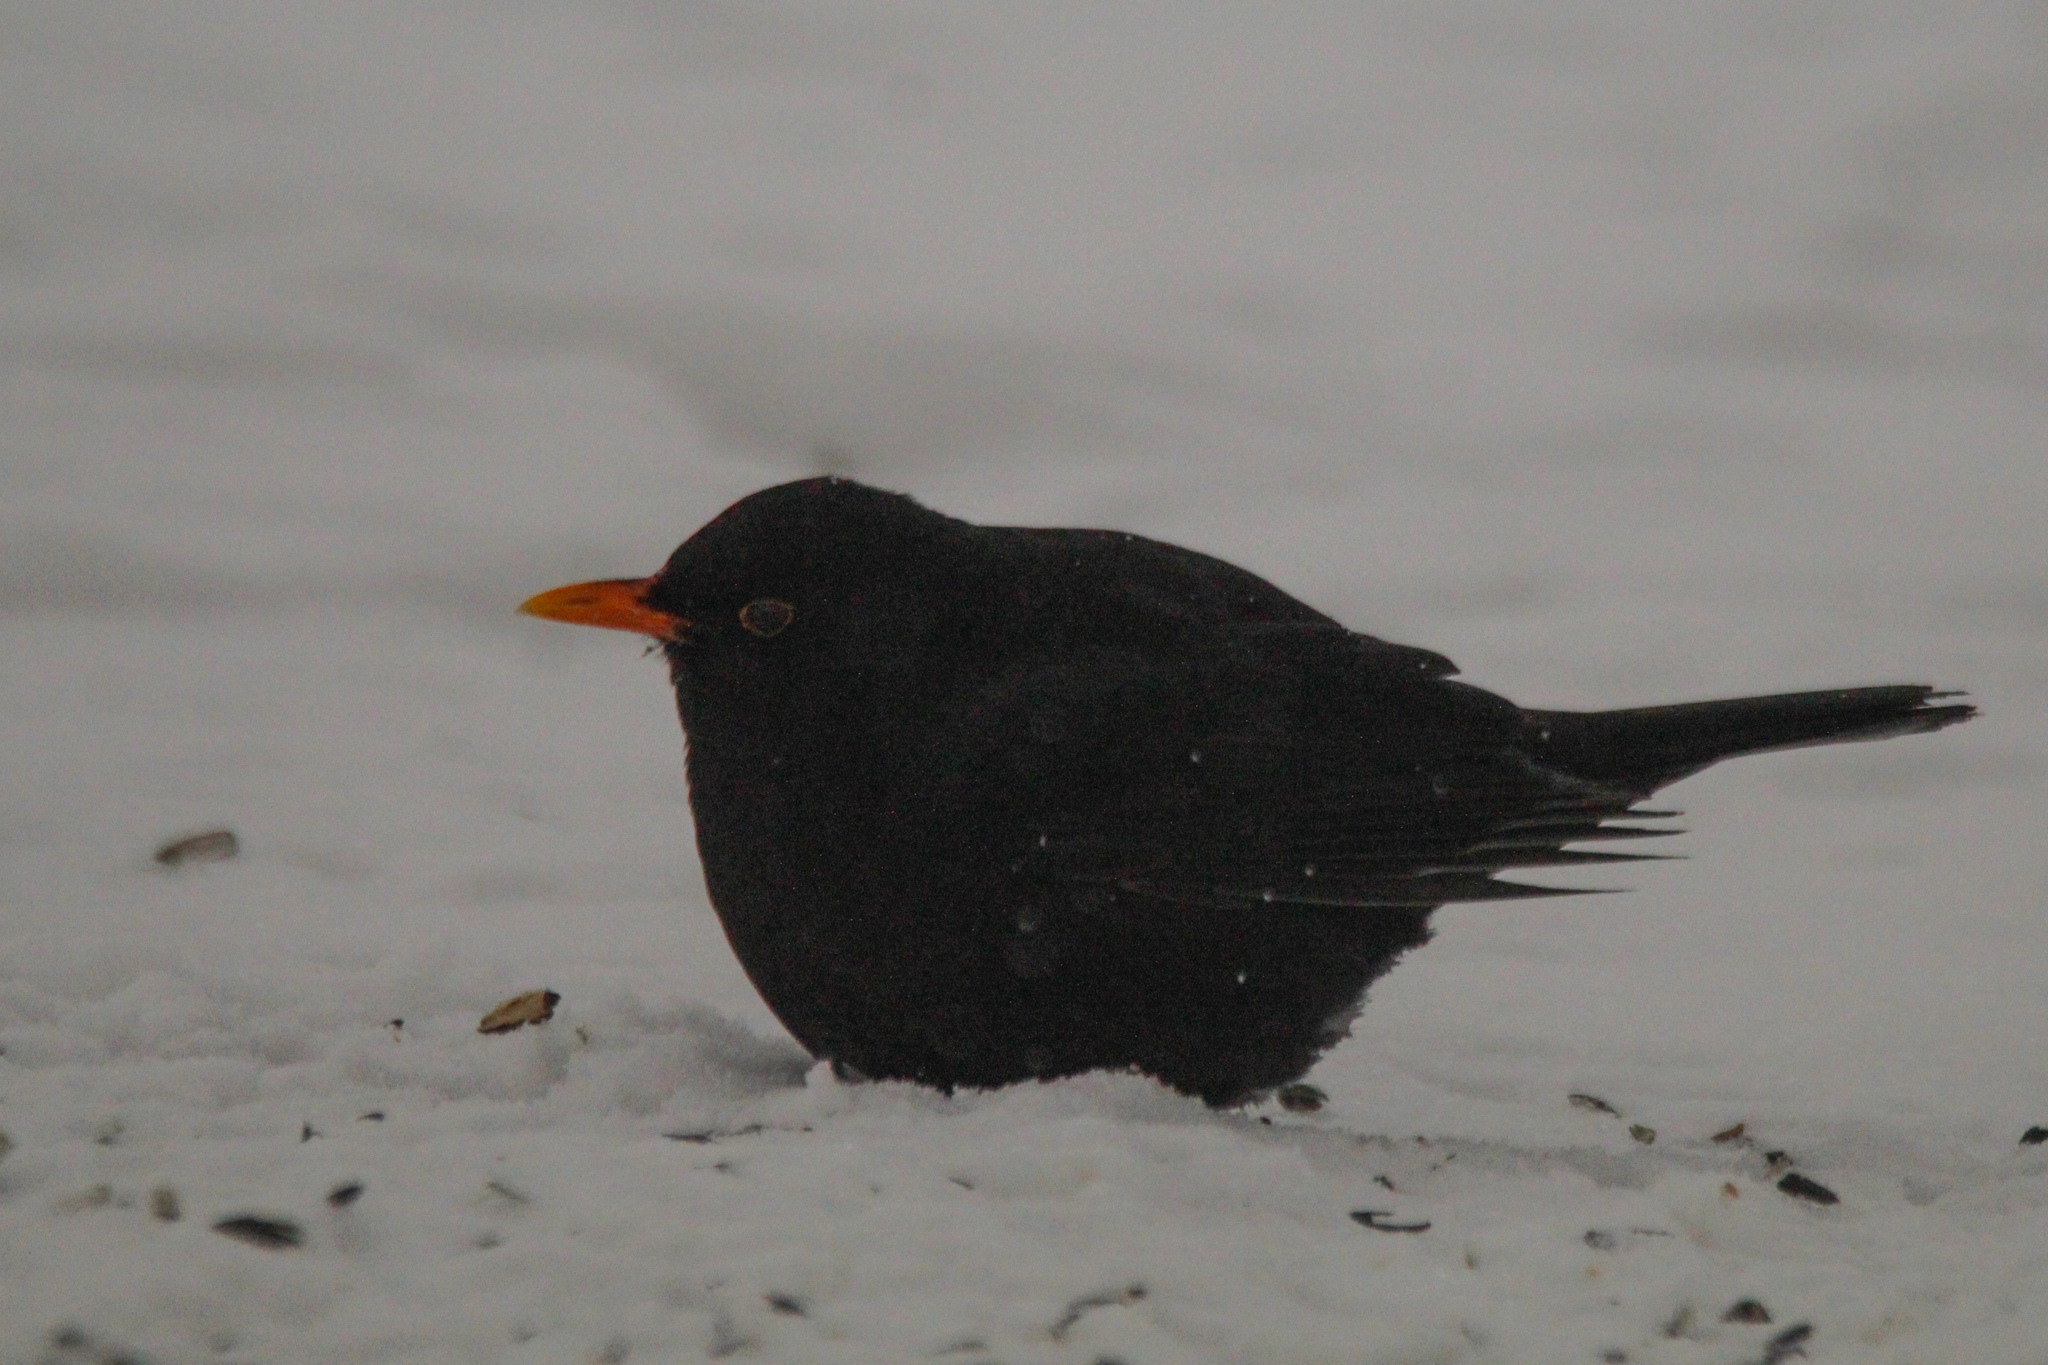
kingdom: Animalia
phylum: Chordata
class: Aves
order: Passeriformes
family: Turdidae
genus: Turdus
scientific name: Turdus merula
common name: Common blackbird
